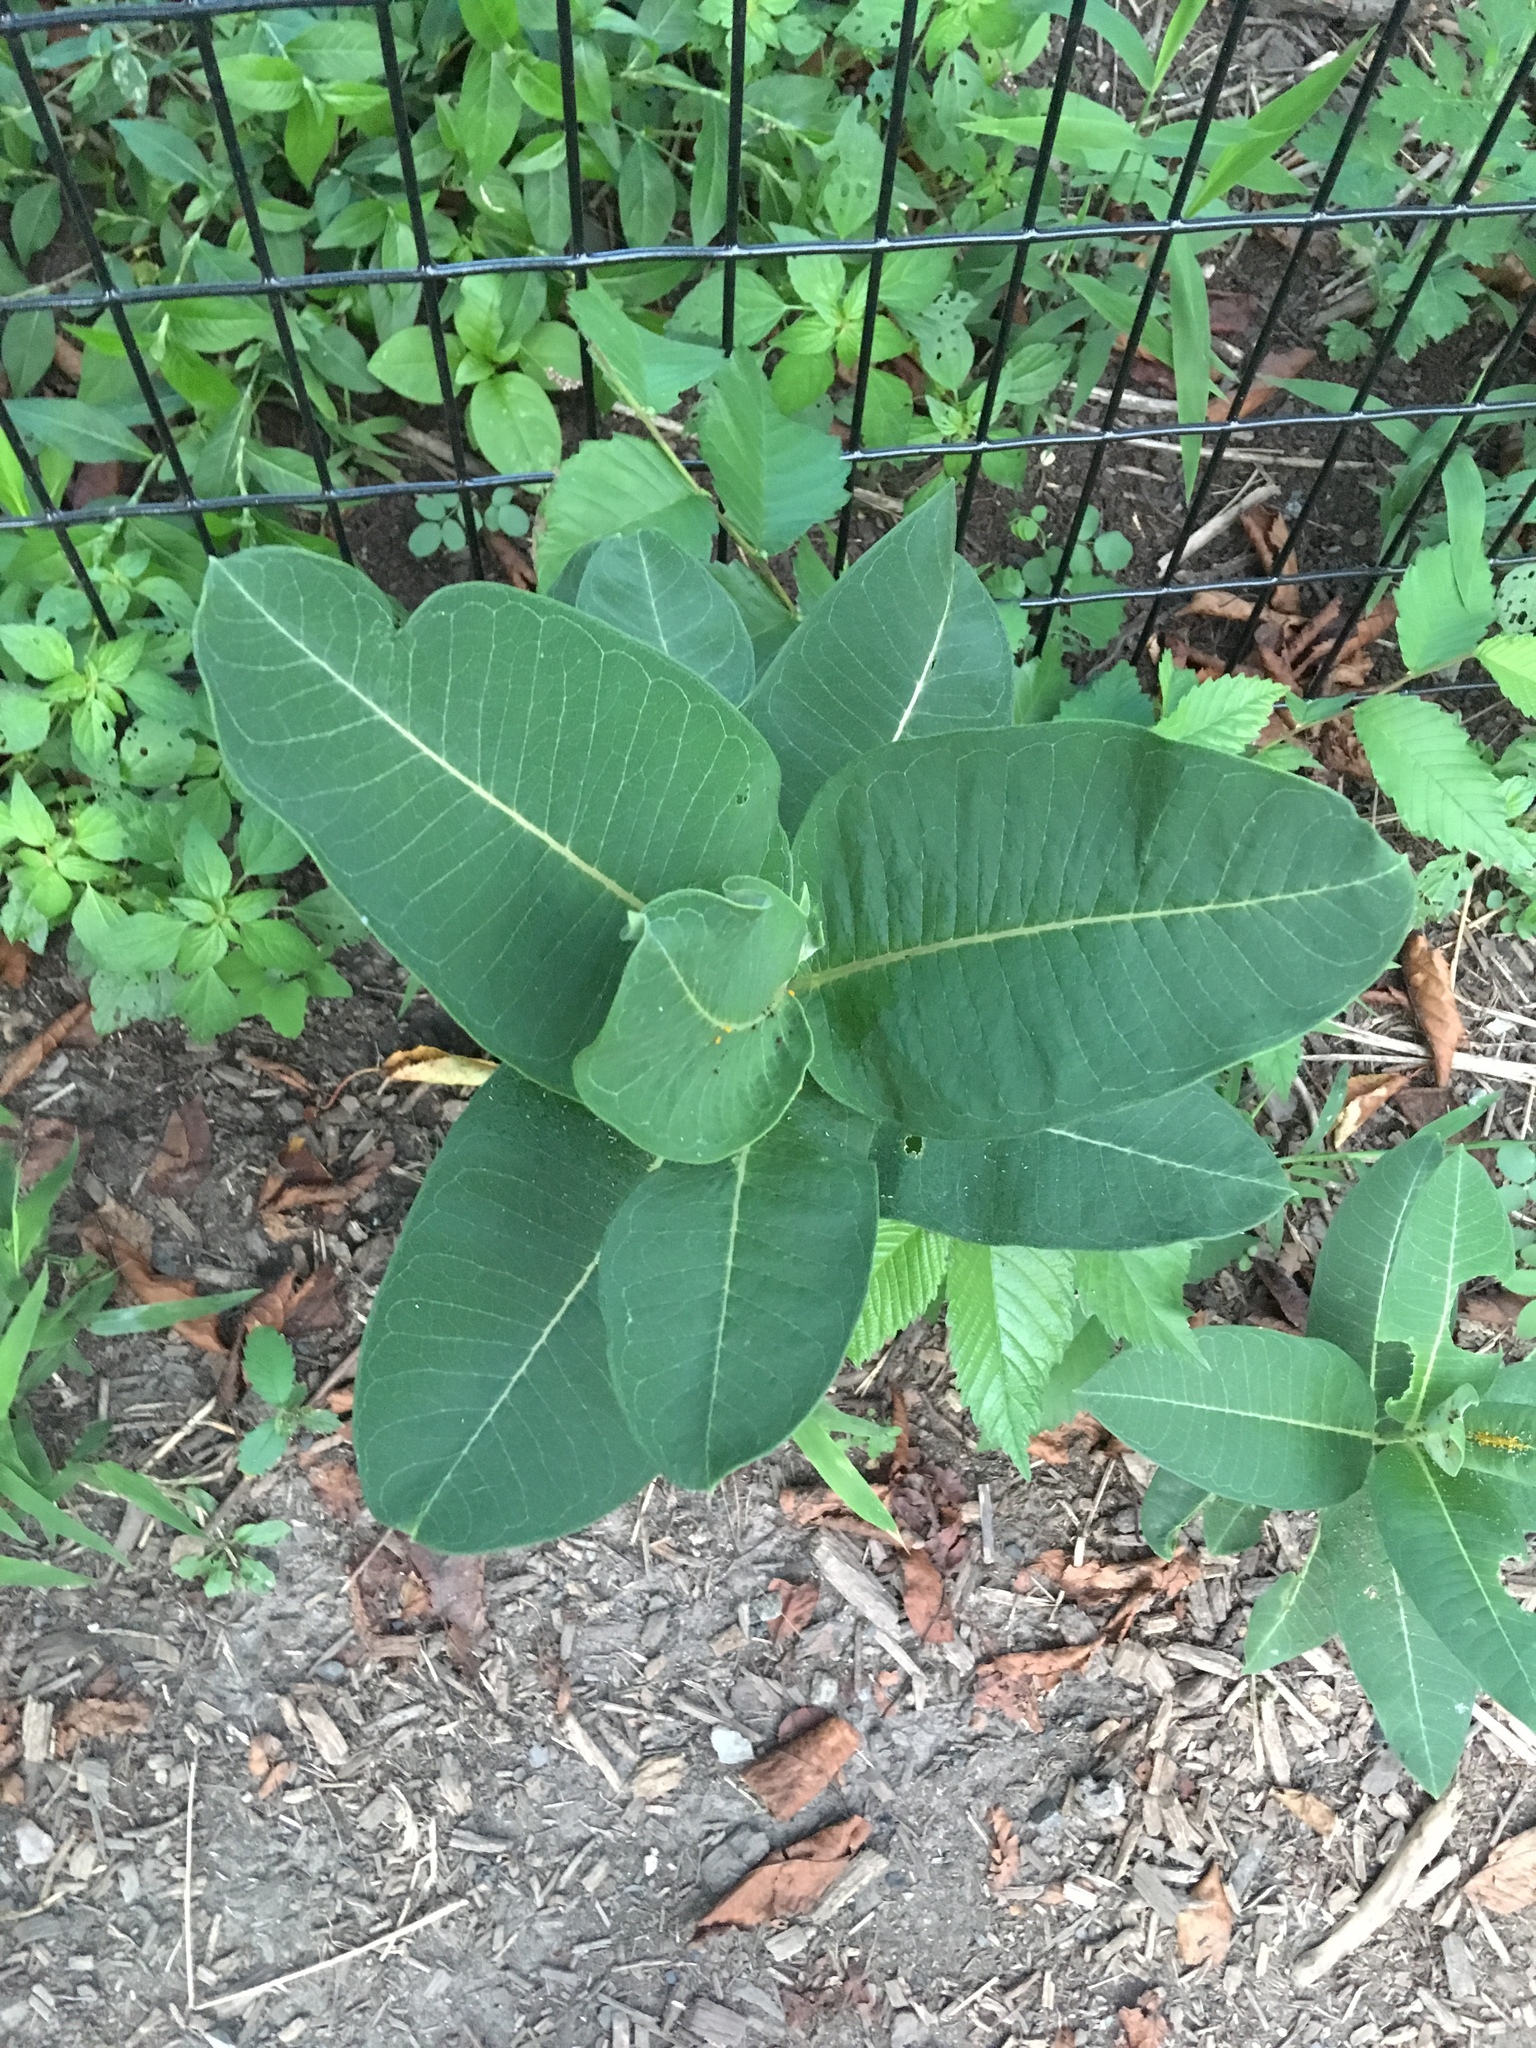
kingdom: Plantae
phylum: Tracheophyta
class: Magnoliopsida
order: Gentianales
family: Apocynaceae
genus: Asclepias
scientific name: Asclepias syriaca
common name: Common milkweed
